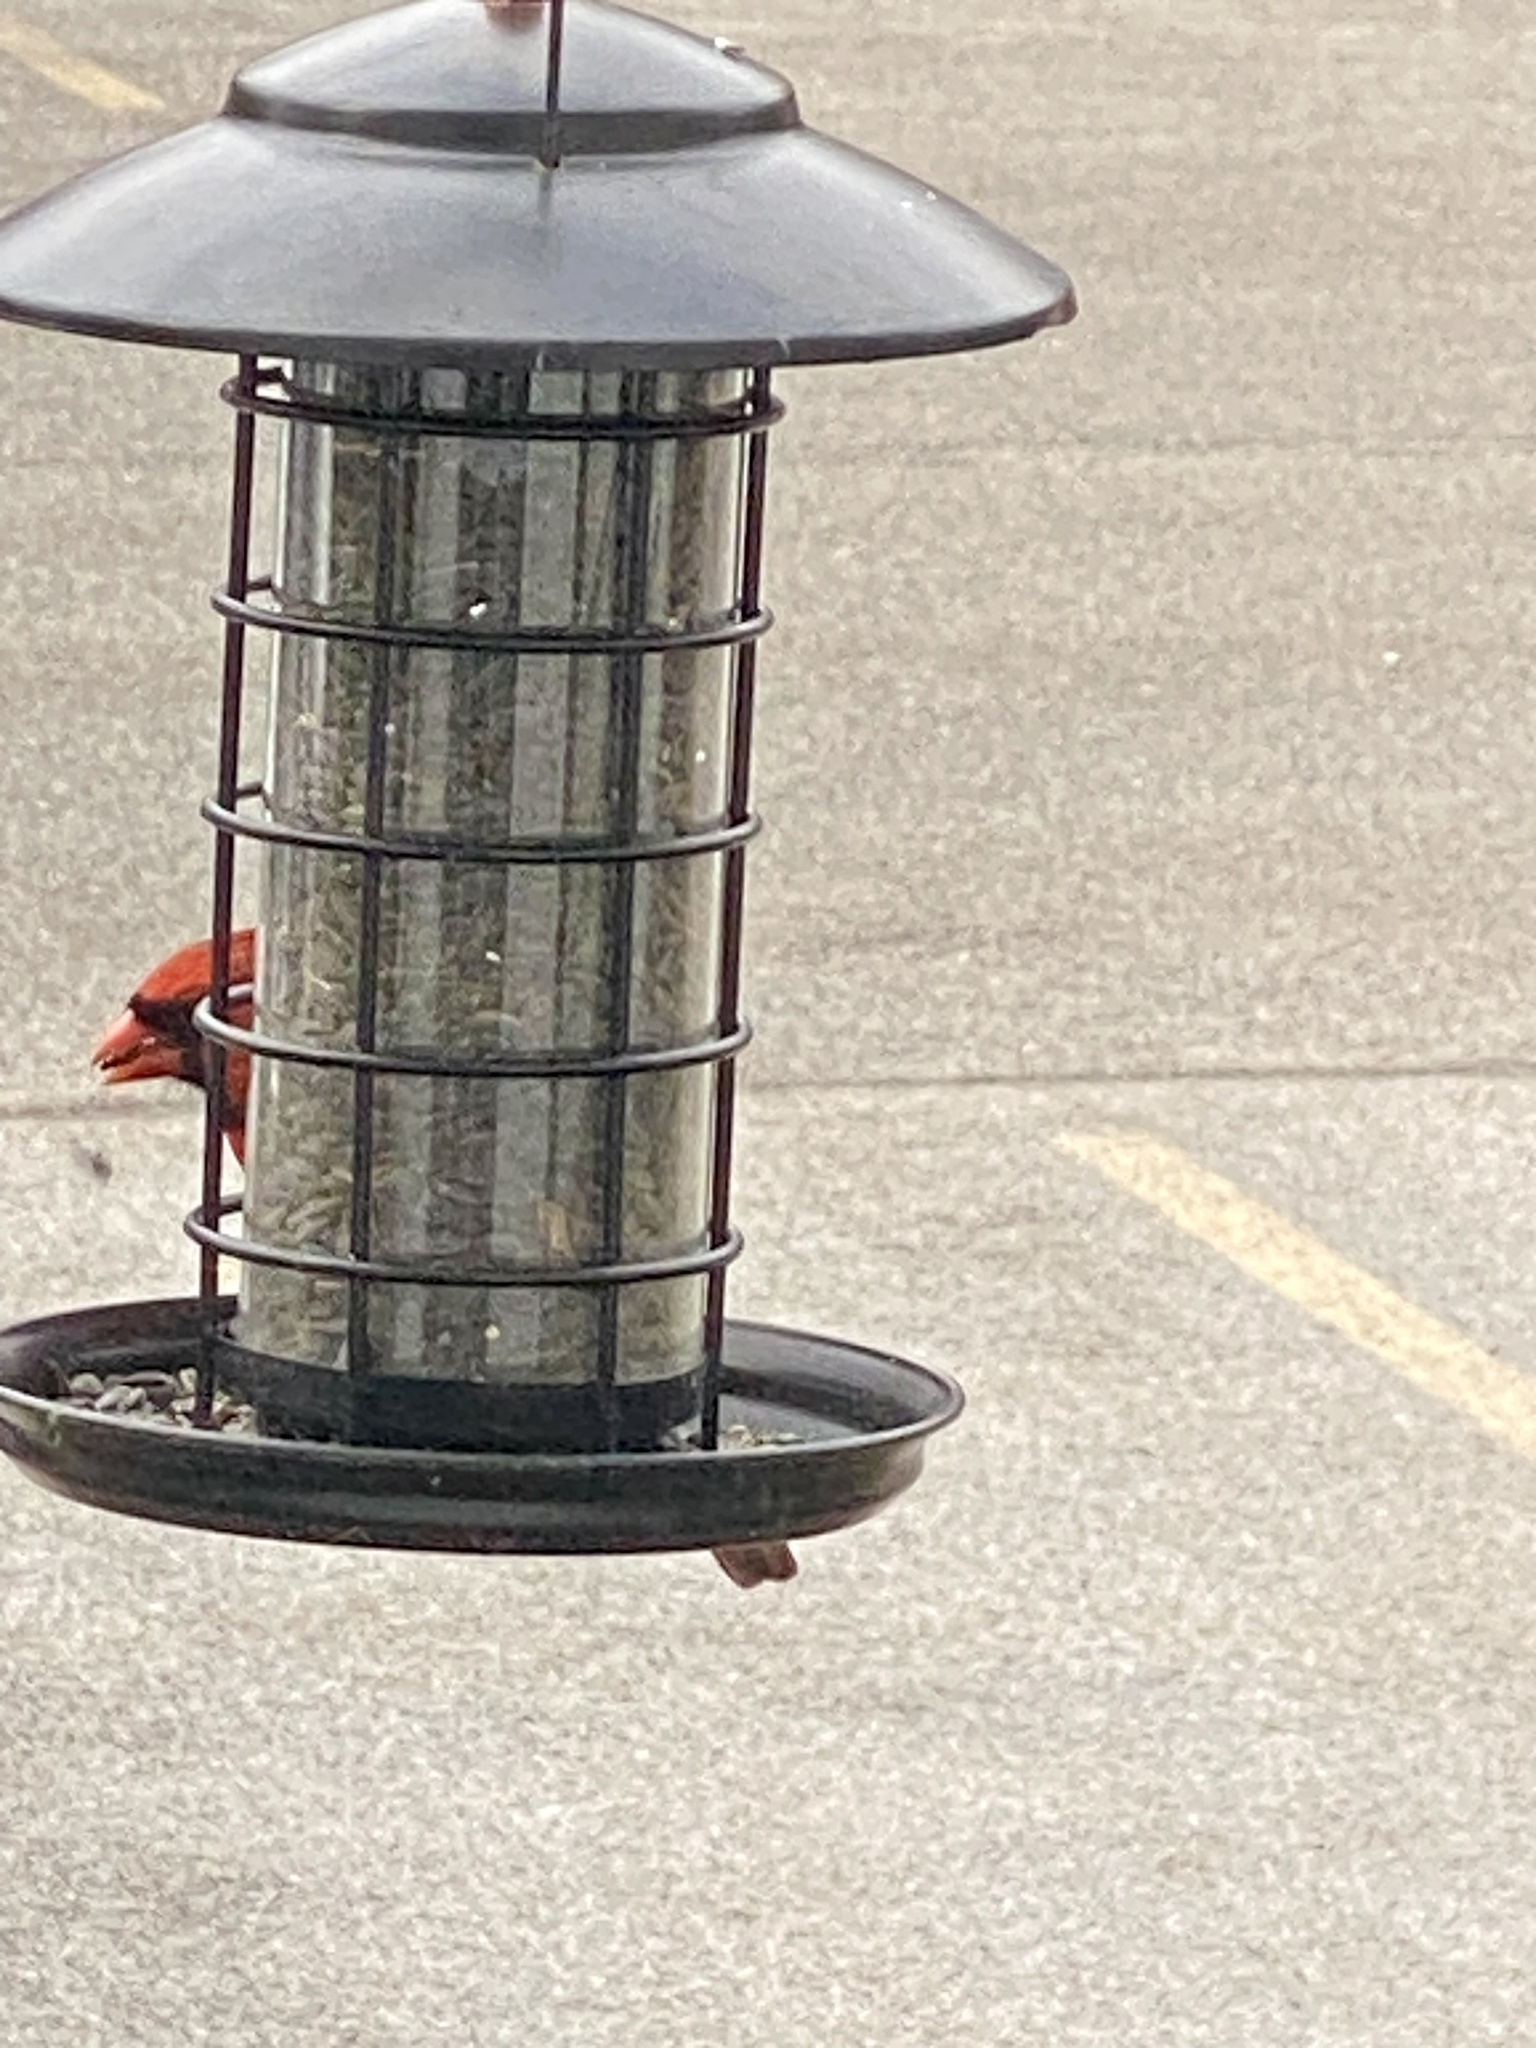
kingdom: Animalia
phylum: Chordata
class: Aves
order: Passeriformes
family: Cardinalidae
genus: Cardinalis
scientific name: Cardinalis cardinalis
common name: Northern cardinal
